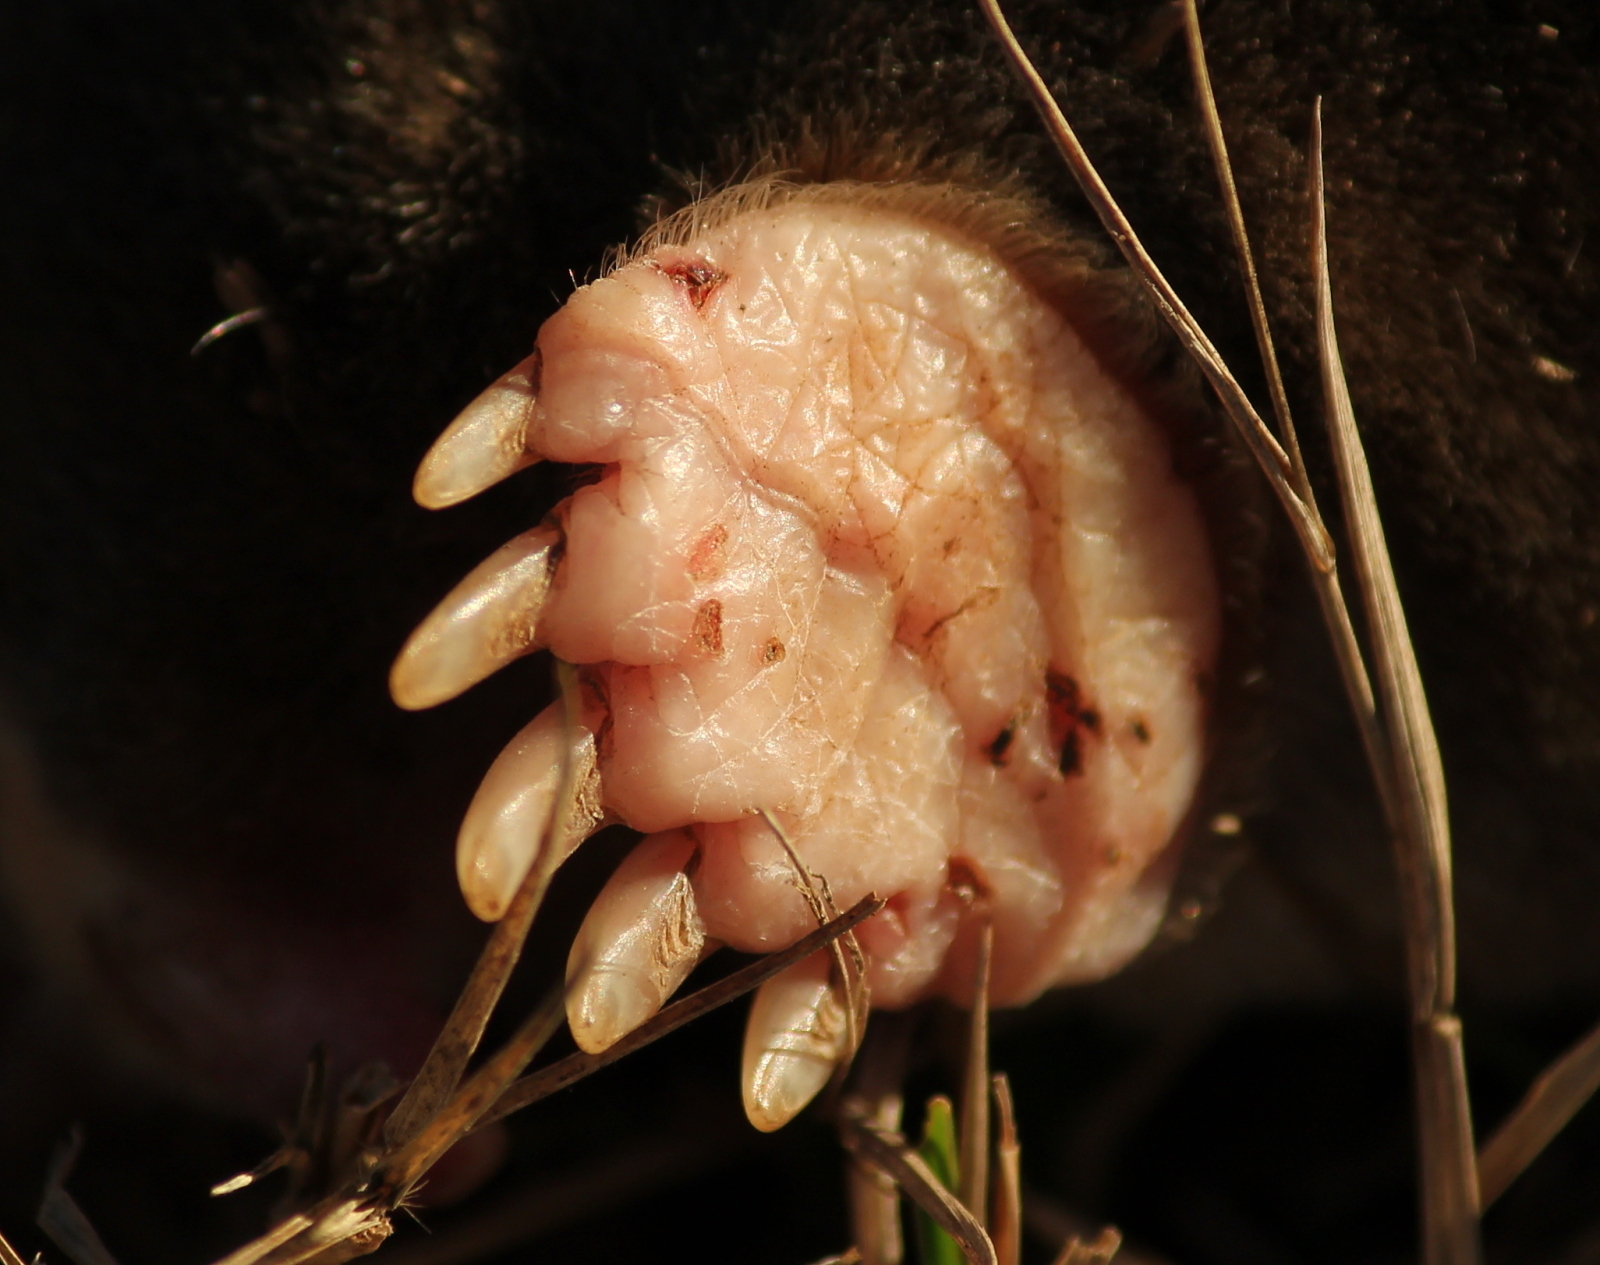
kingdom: Animalia
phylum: Chordata
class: Mammalia
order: Soricomorpha
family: Talpidae
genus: Scalopus
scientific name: Scalopus aquaticus
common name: Eastern mole
